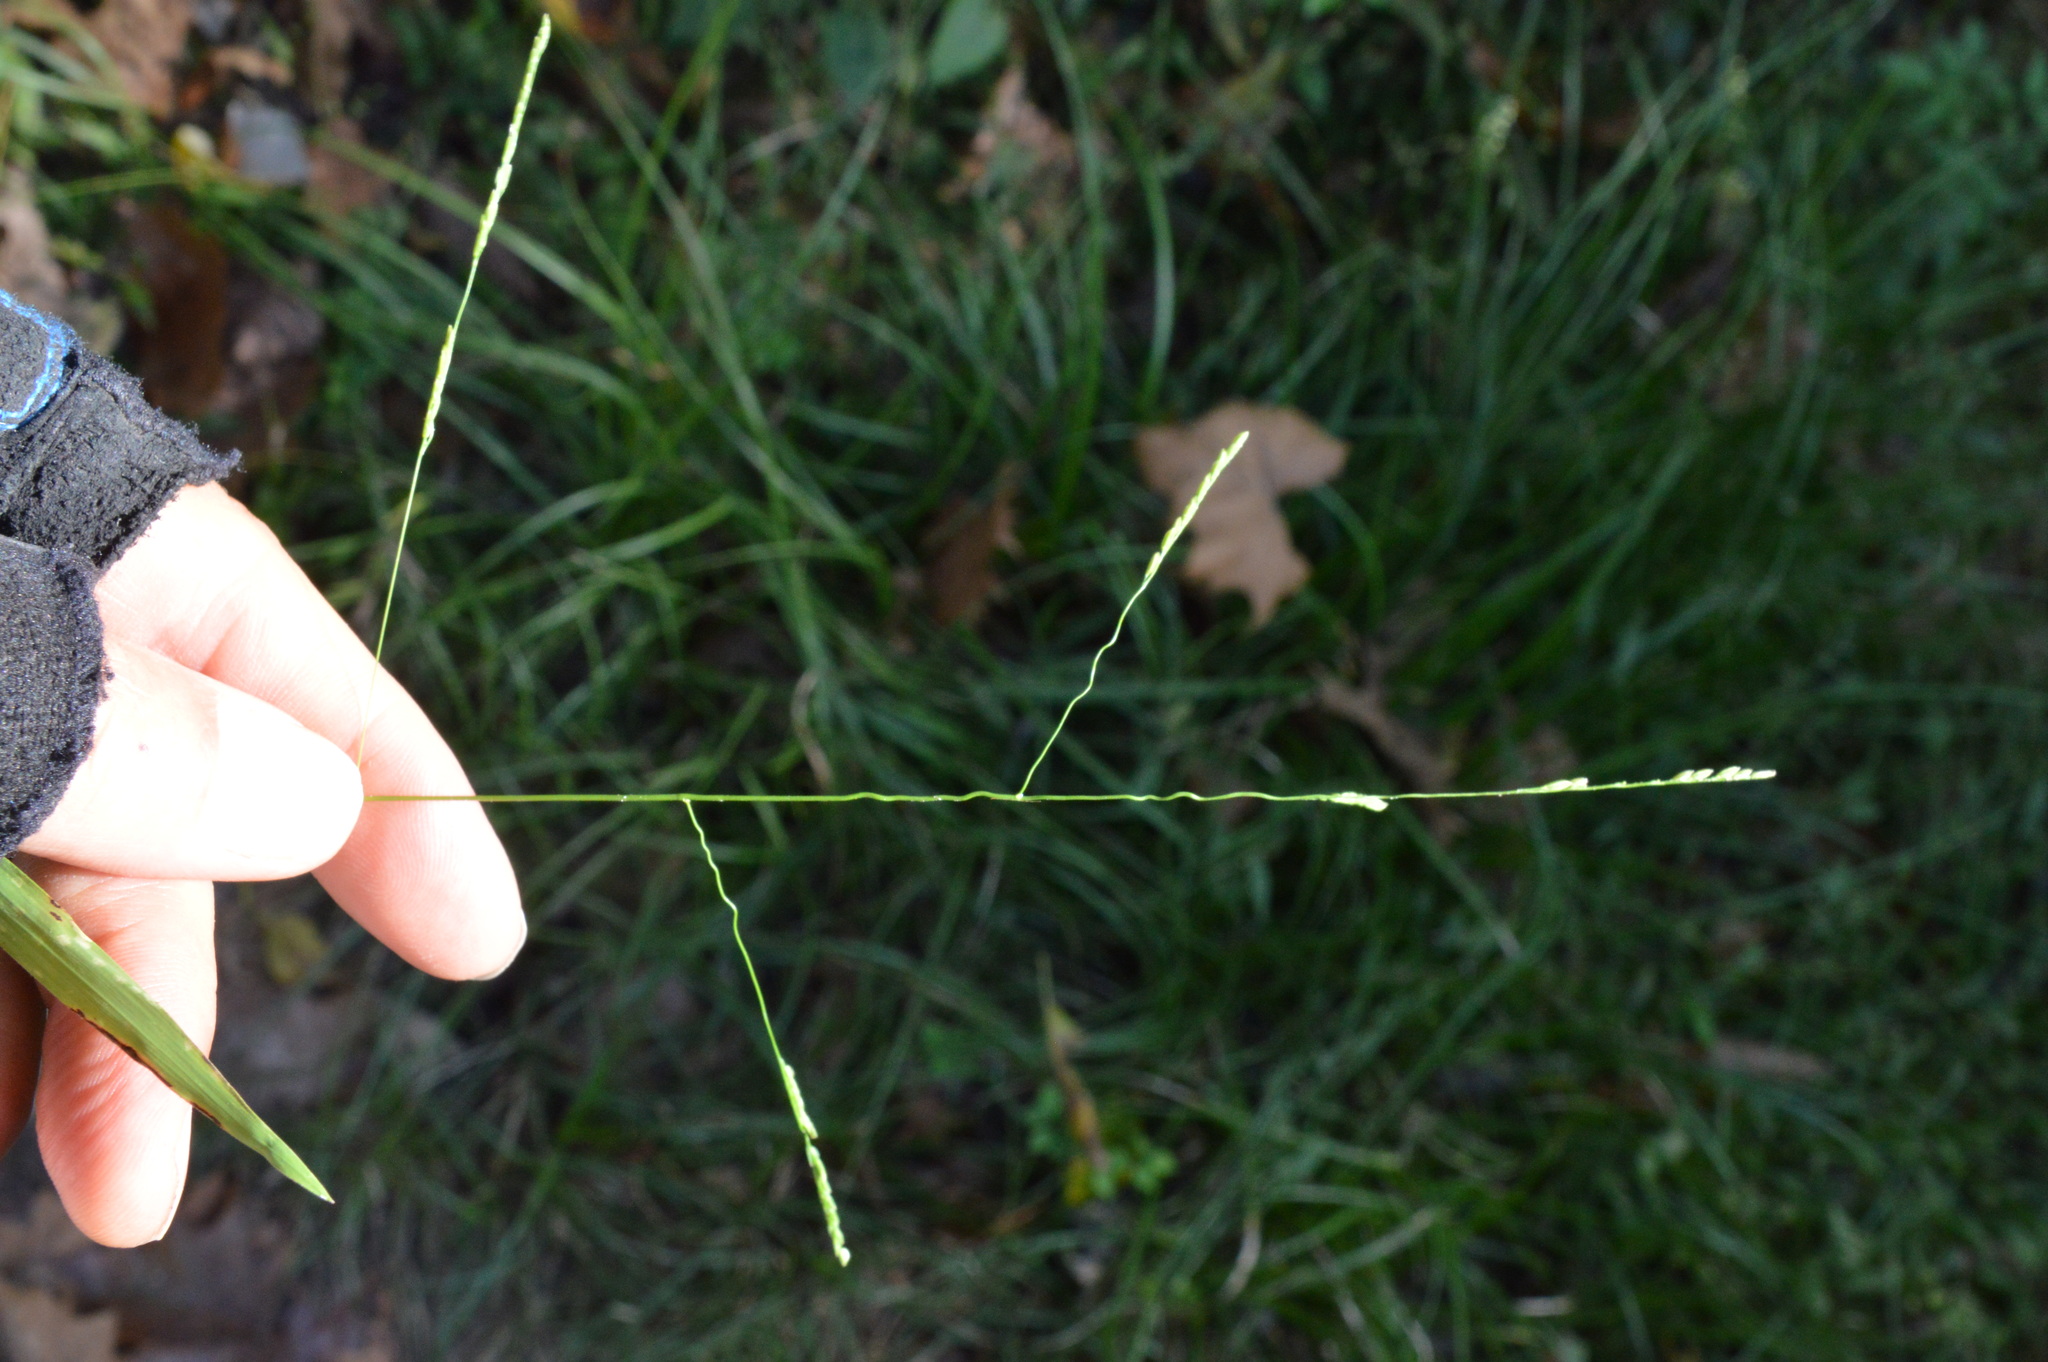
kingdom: Plantae
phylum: Tracheophyta
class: Liliopsida
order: Poales
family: Poaceae
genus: Leersia
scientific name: Leersia virginica
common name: White cutgrass
